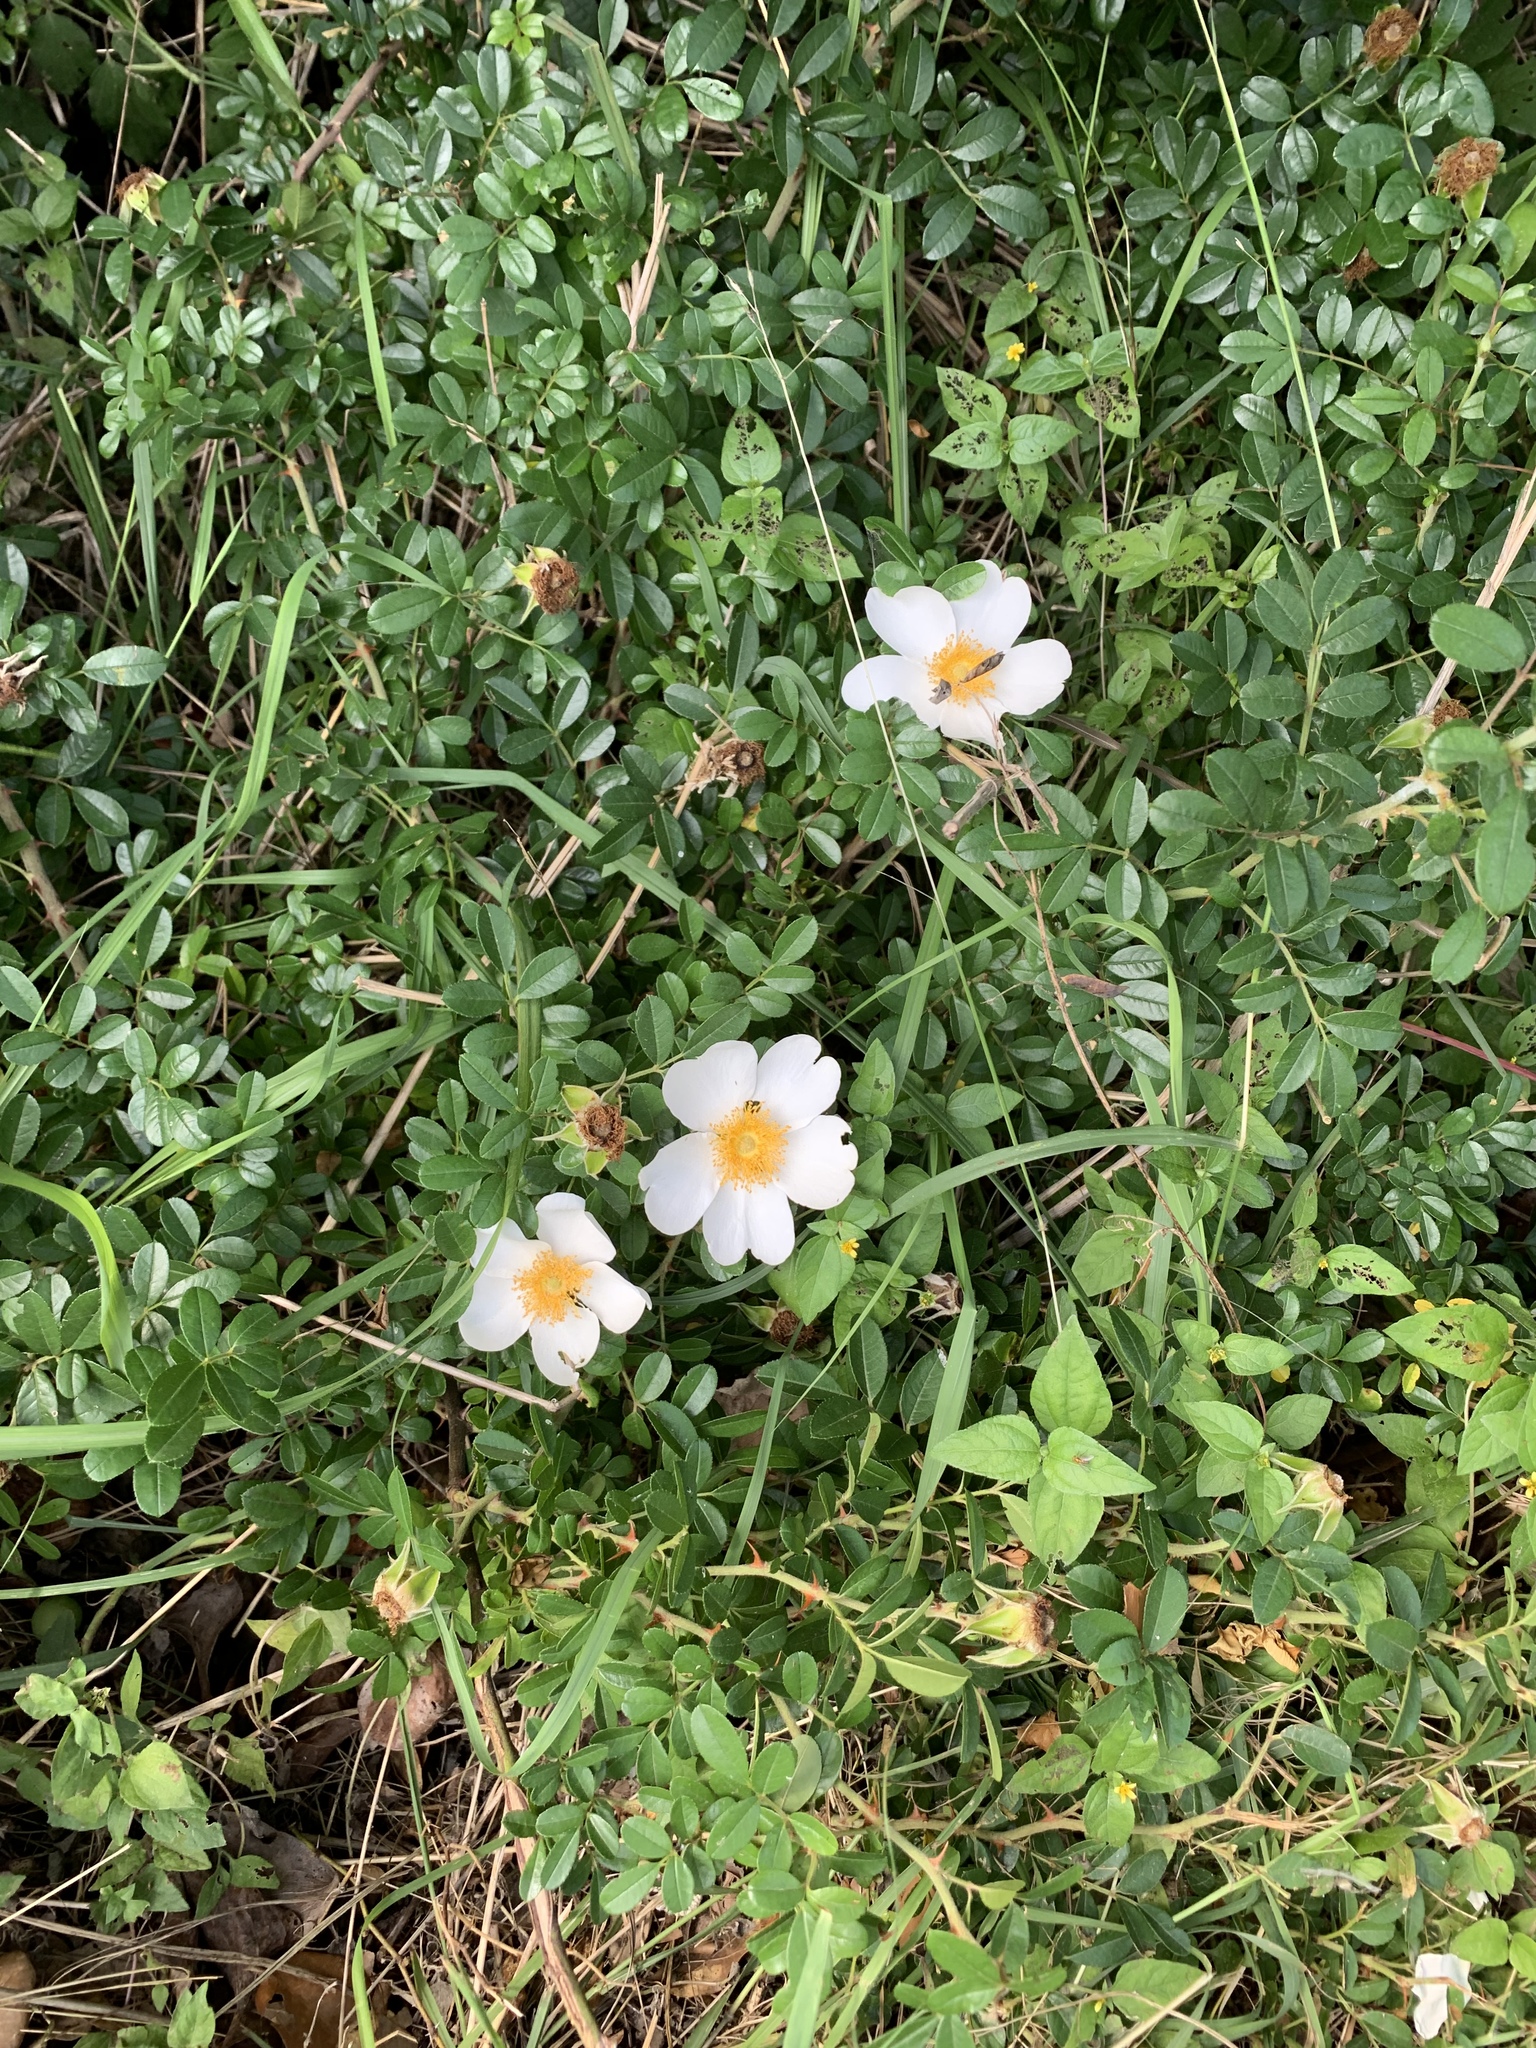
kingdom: Plantae
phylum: Tracheophyta
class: Magnoliopsida
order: Rosales
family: Rosaceae
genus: Rosa
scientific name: Rosa bracteata
